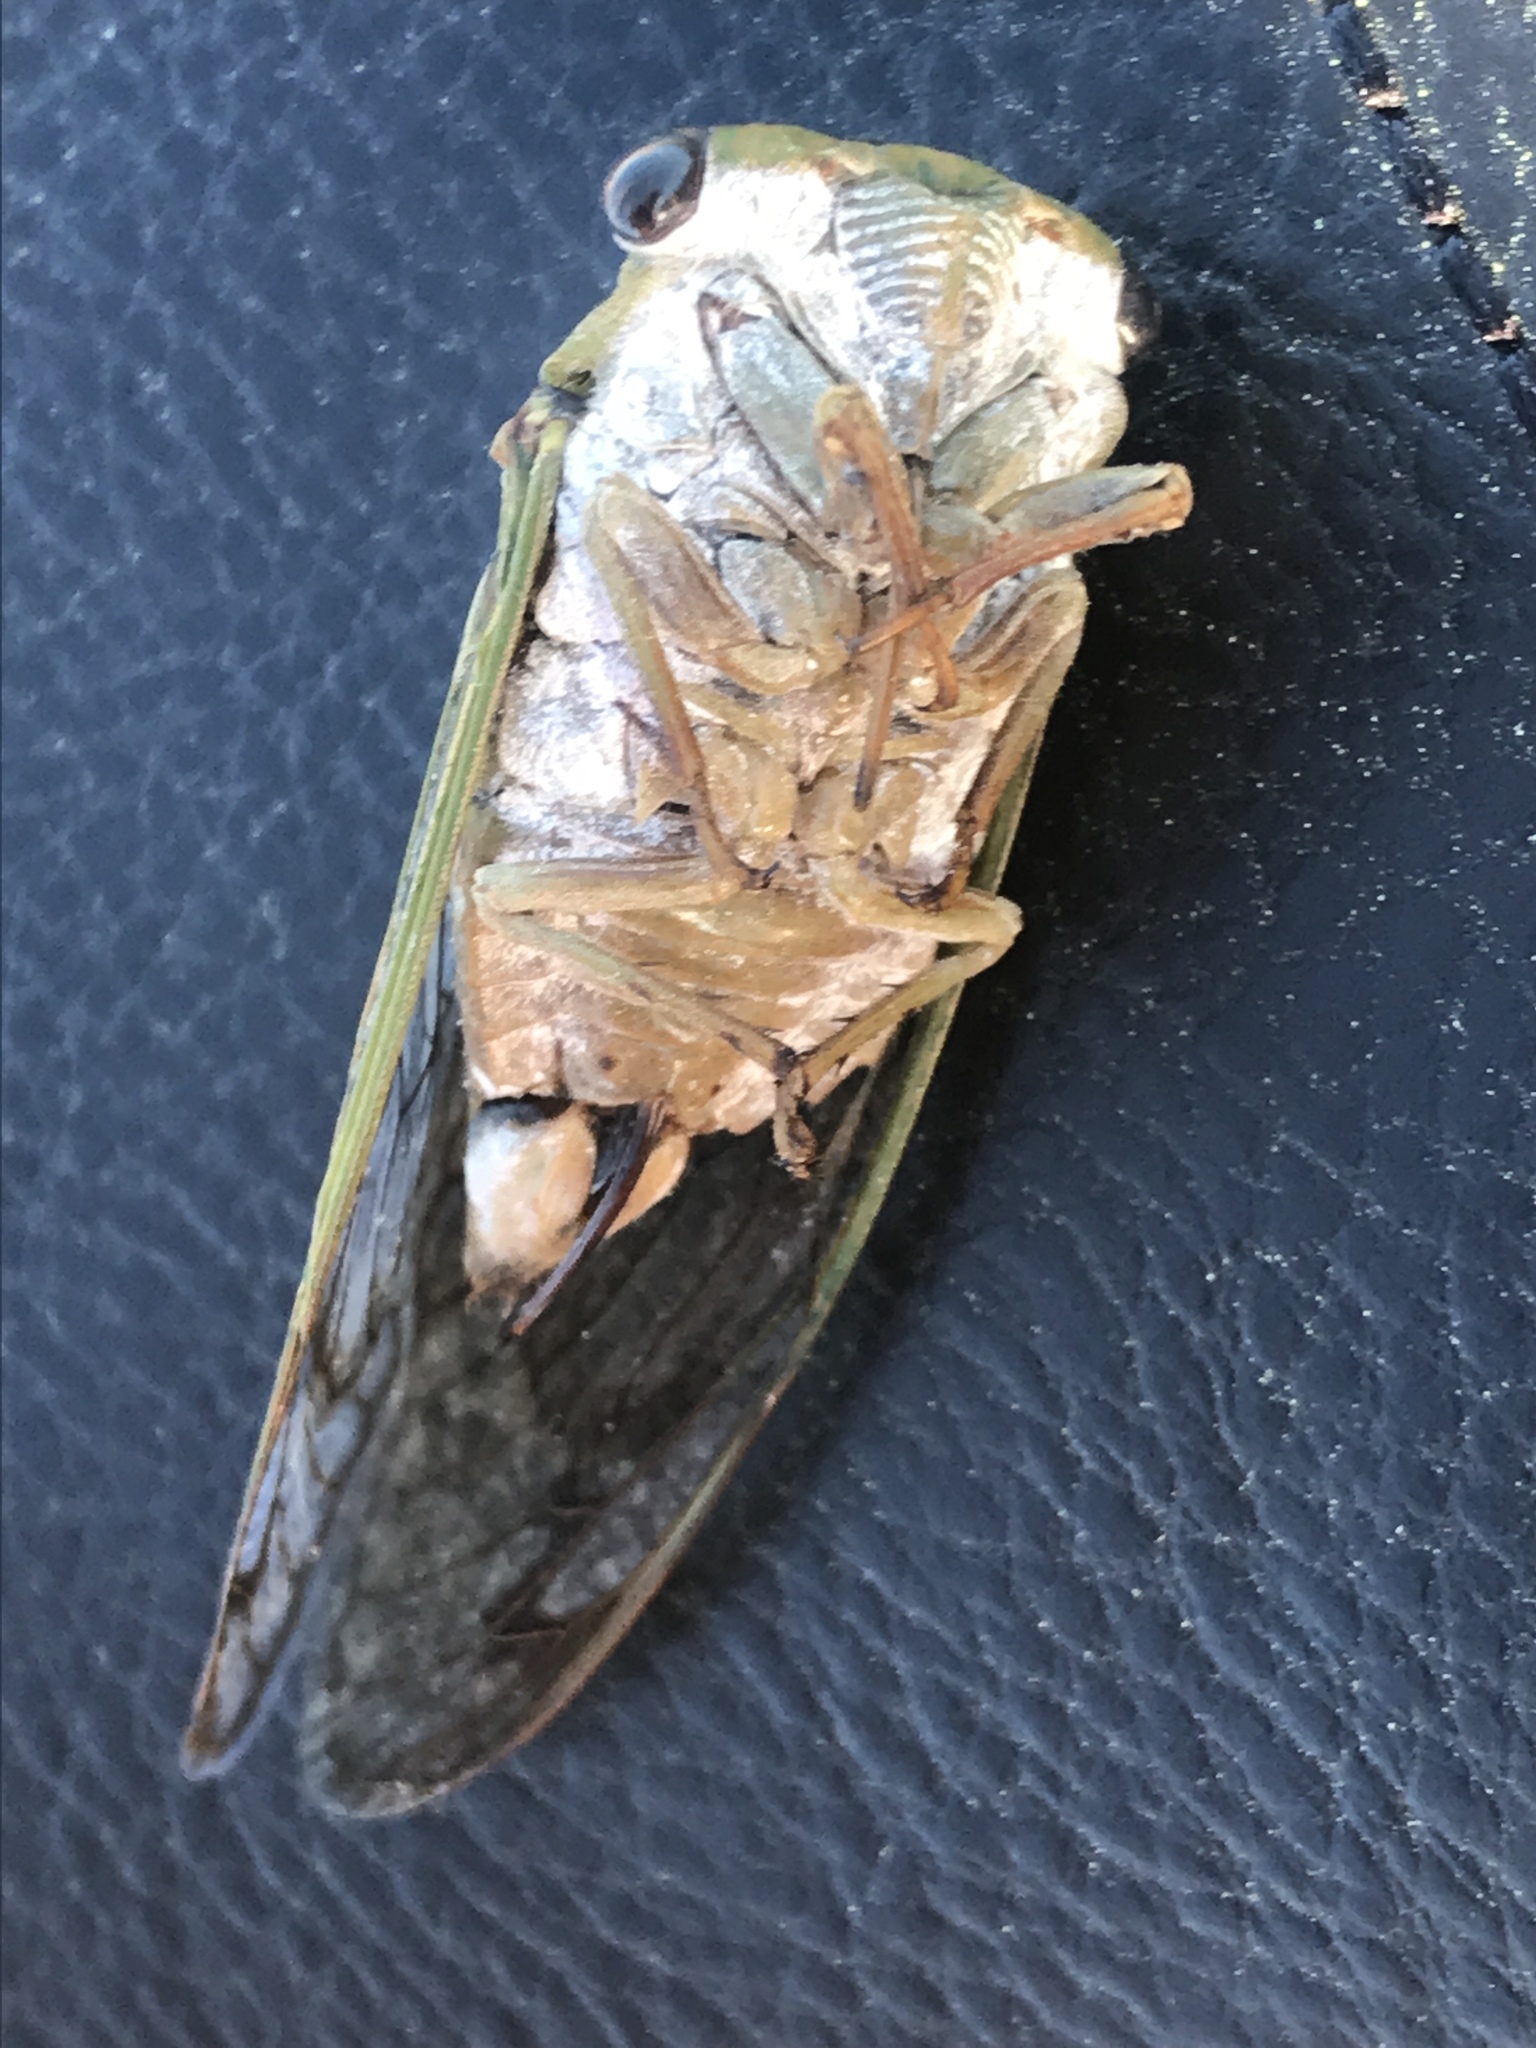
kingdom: Animalia
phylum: Arthropoda
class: Insecta
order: Hemiptera
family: Cicadidae
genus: Neotibicen
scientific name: Neotibicen superbus
